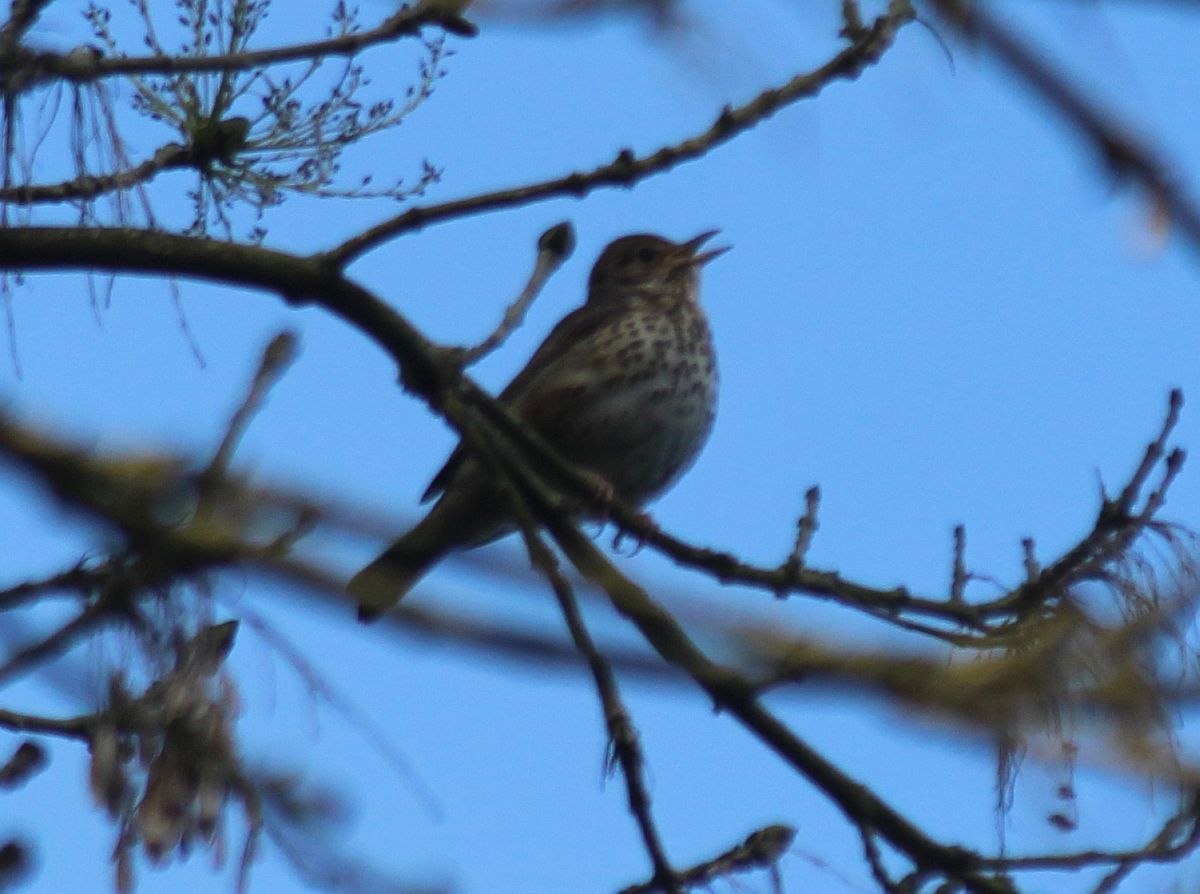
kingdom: Animalia
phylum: Chordata
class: Aves
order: Passeriformes
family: Turdidae
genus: Turdus
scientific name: Turdus philomelos
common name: Song thrush
